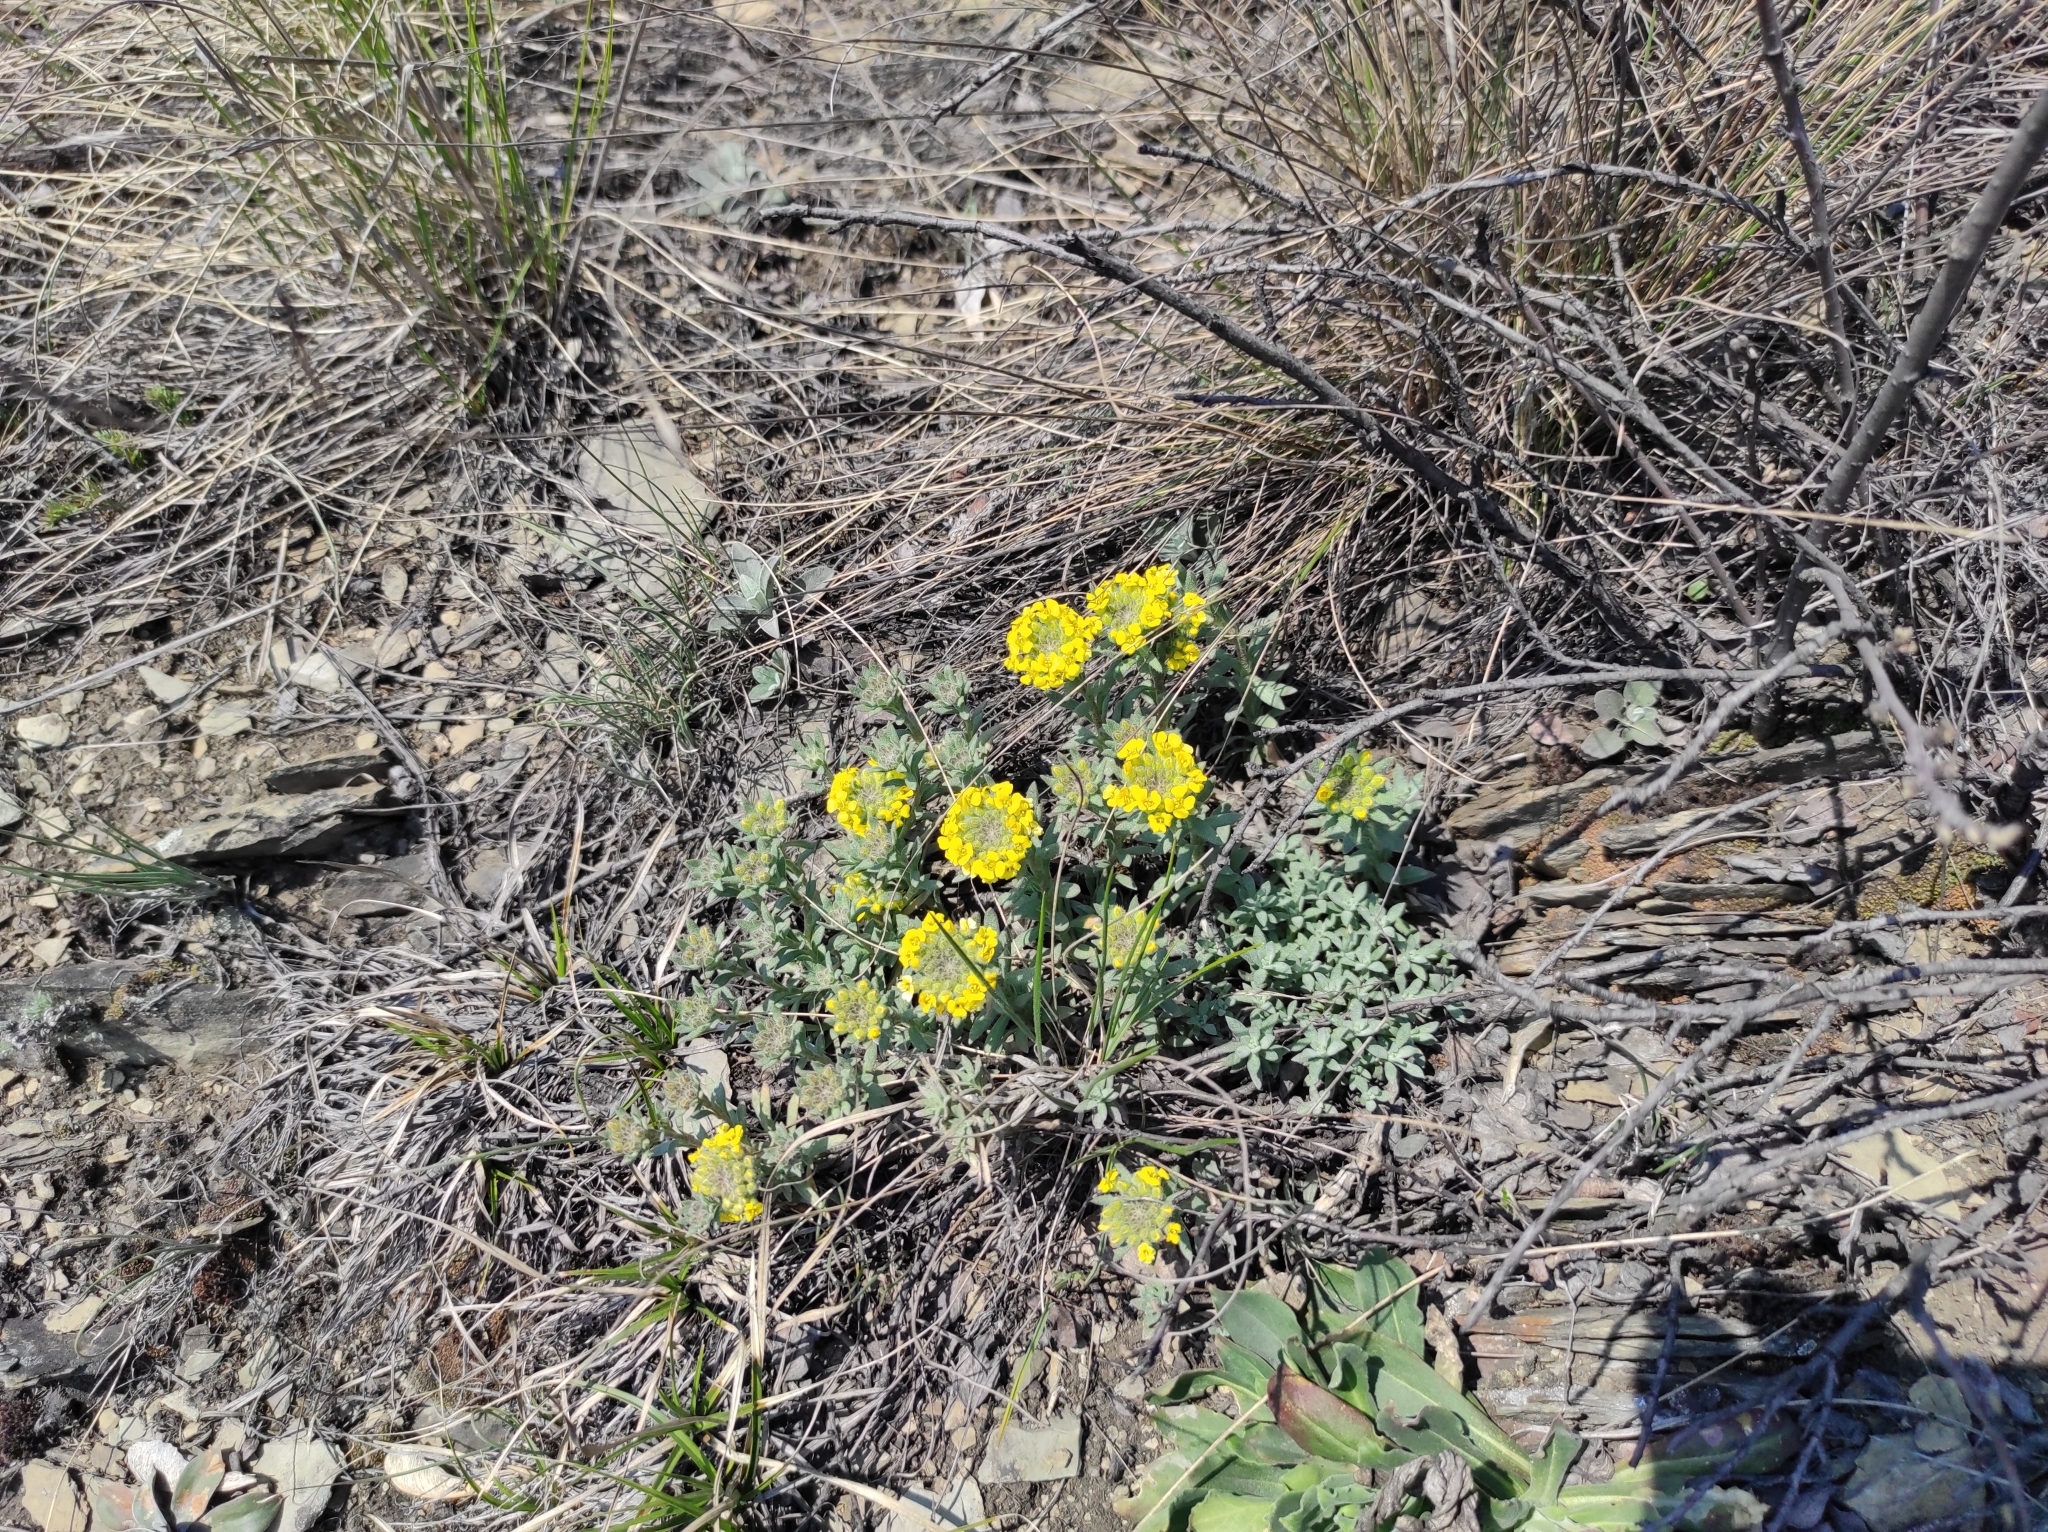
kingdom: Plantae
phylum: Tracheophyta
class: Magnoliopsida
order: Brassicales
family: Brassicaceae
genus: Alyssum
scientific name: Alyssum lenense
